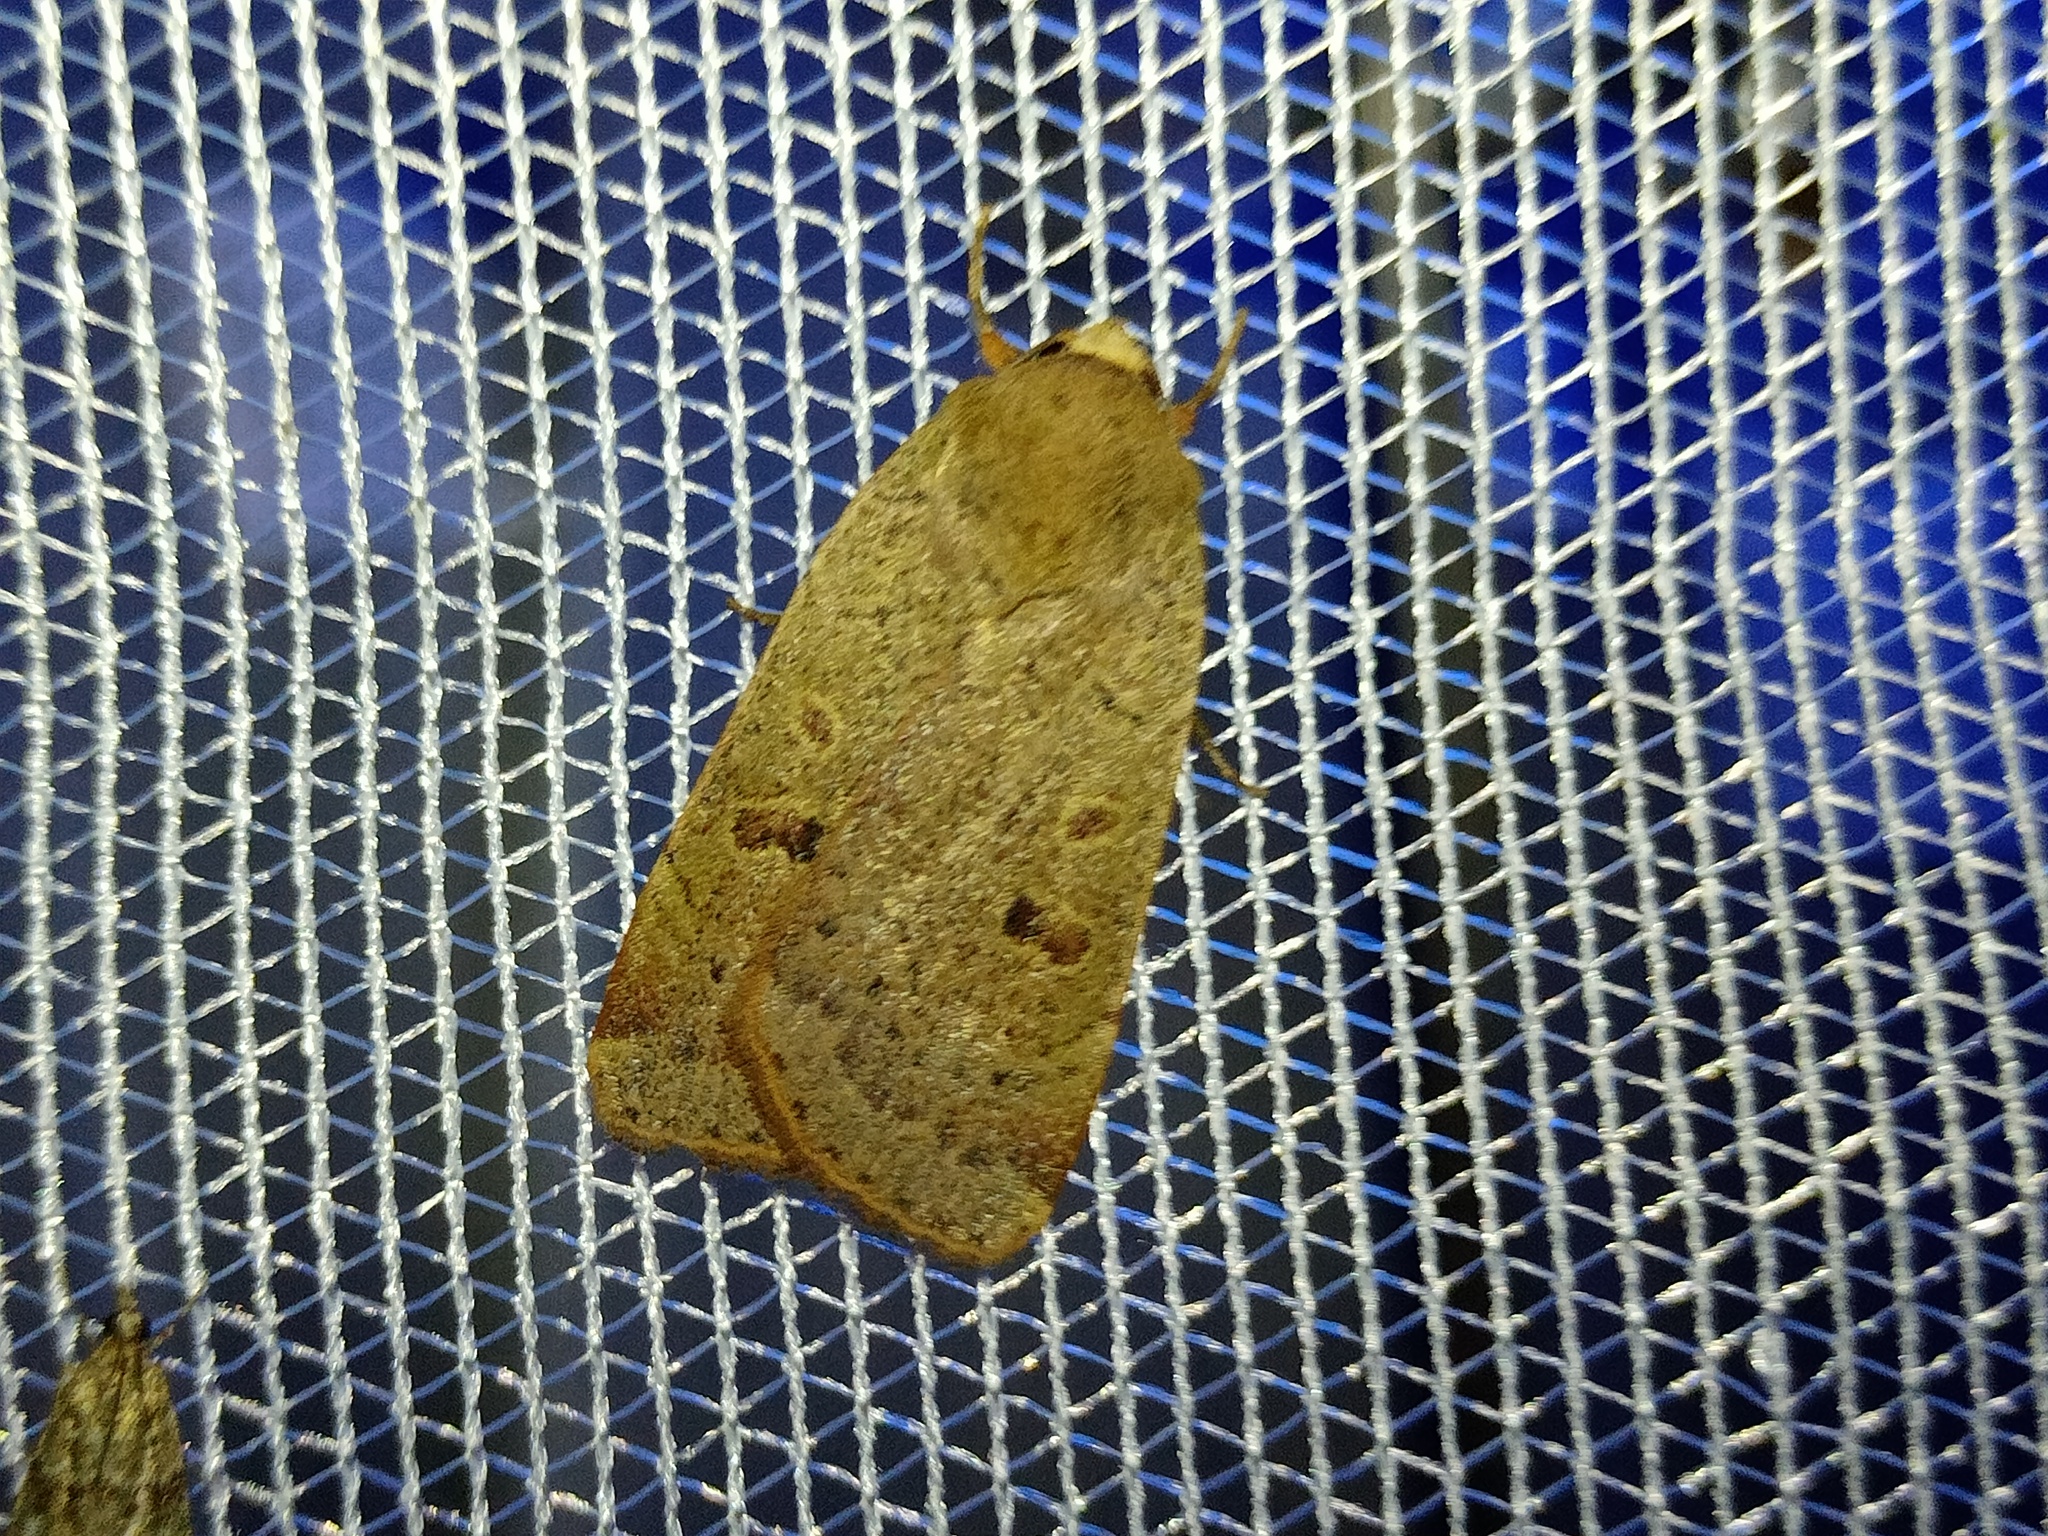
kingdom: Animalia
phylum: Arthropoda
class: Insecta
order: Lepidoptera
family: Noctuidae
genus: Noctua
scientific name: Noctua comes
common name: Lesser yellow underwing
